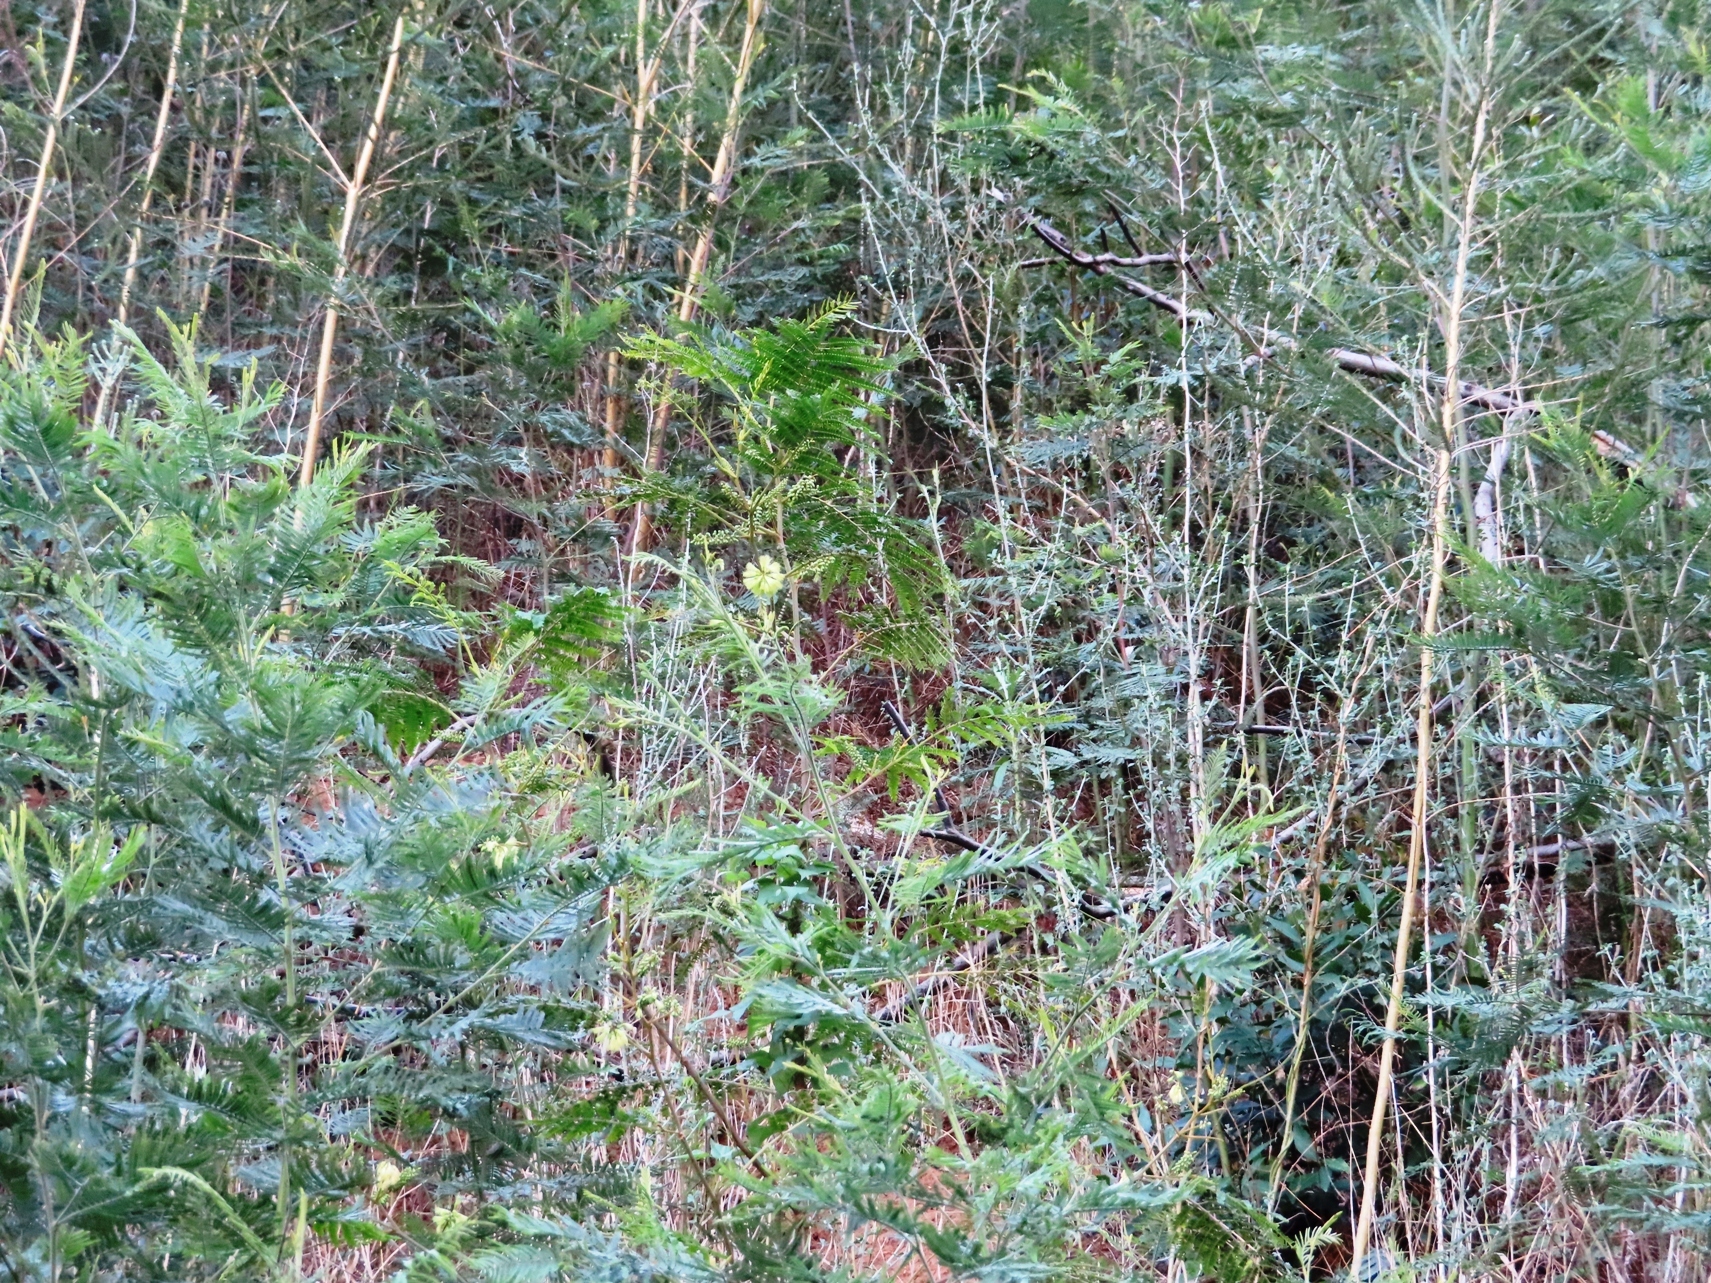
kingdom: Plantae
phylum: Tracheophyta
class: Magnoliopsida
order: Fabales
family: Fabaceae
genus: Paraserianthes
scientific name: Paraserianthes lophantha
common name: Plume albizia
